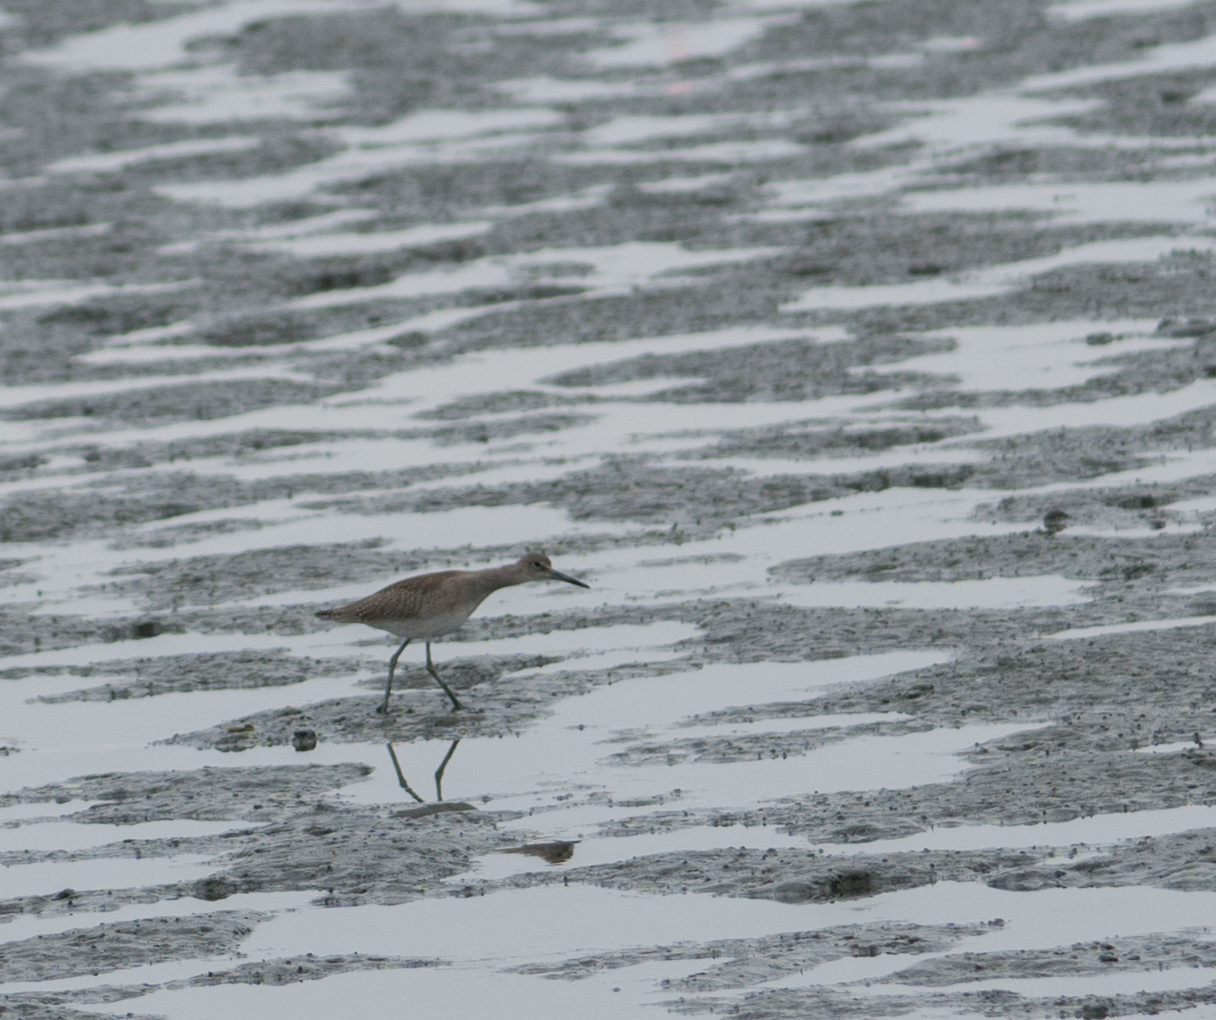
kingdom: Animalia
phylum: Chordata
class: Aves
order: Charadriiformes
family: Scolopacidae
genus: Tringa
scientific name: Tringa semipalmata
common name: Willet
